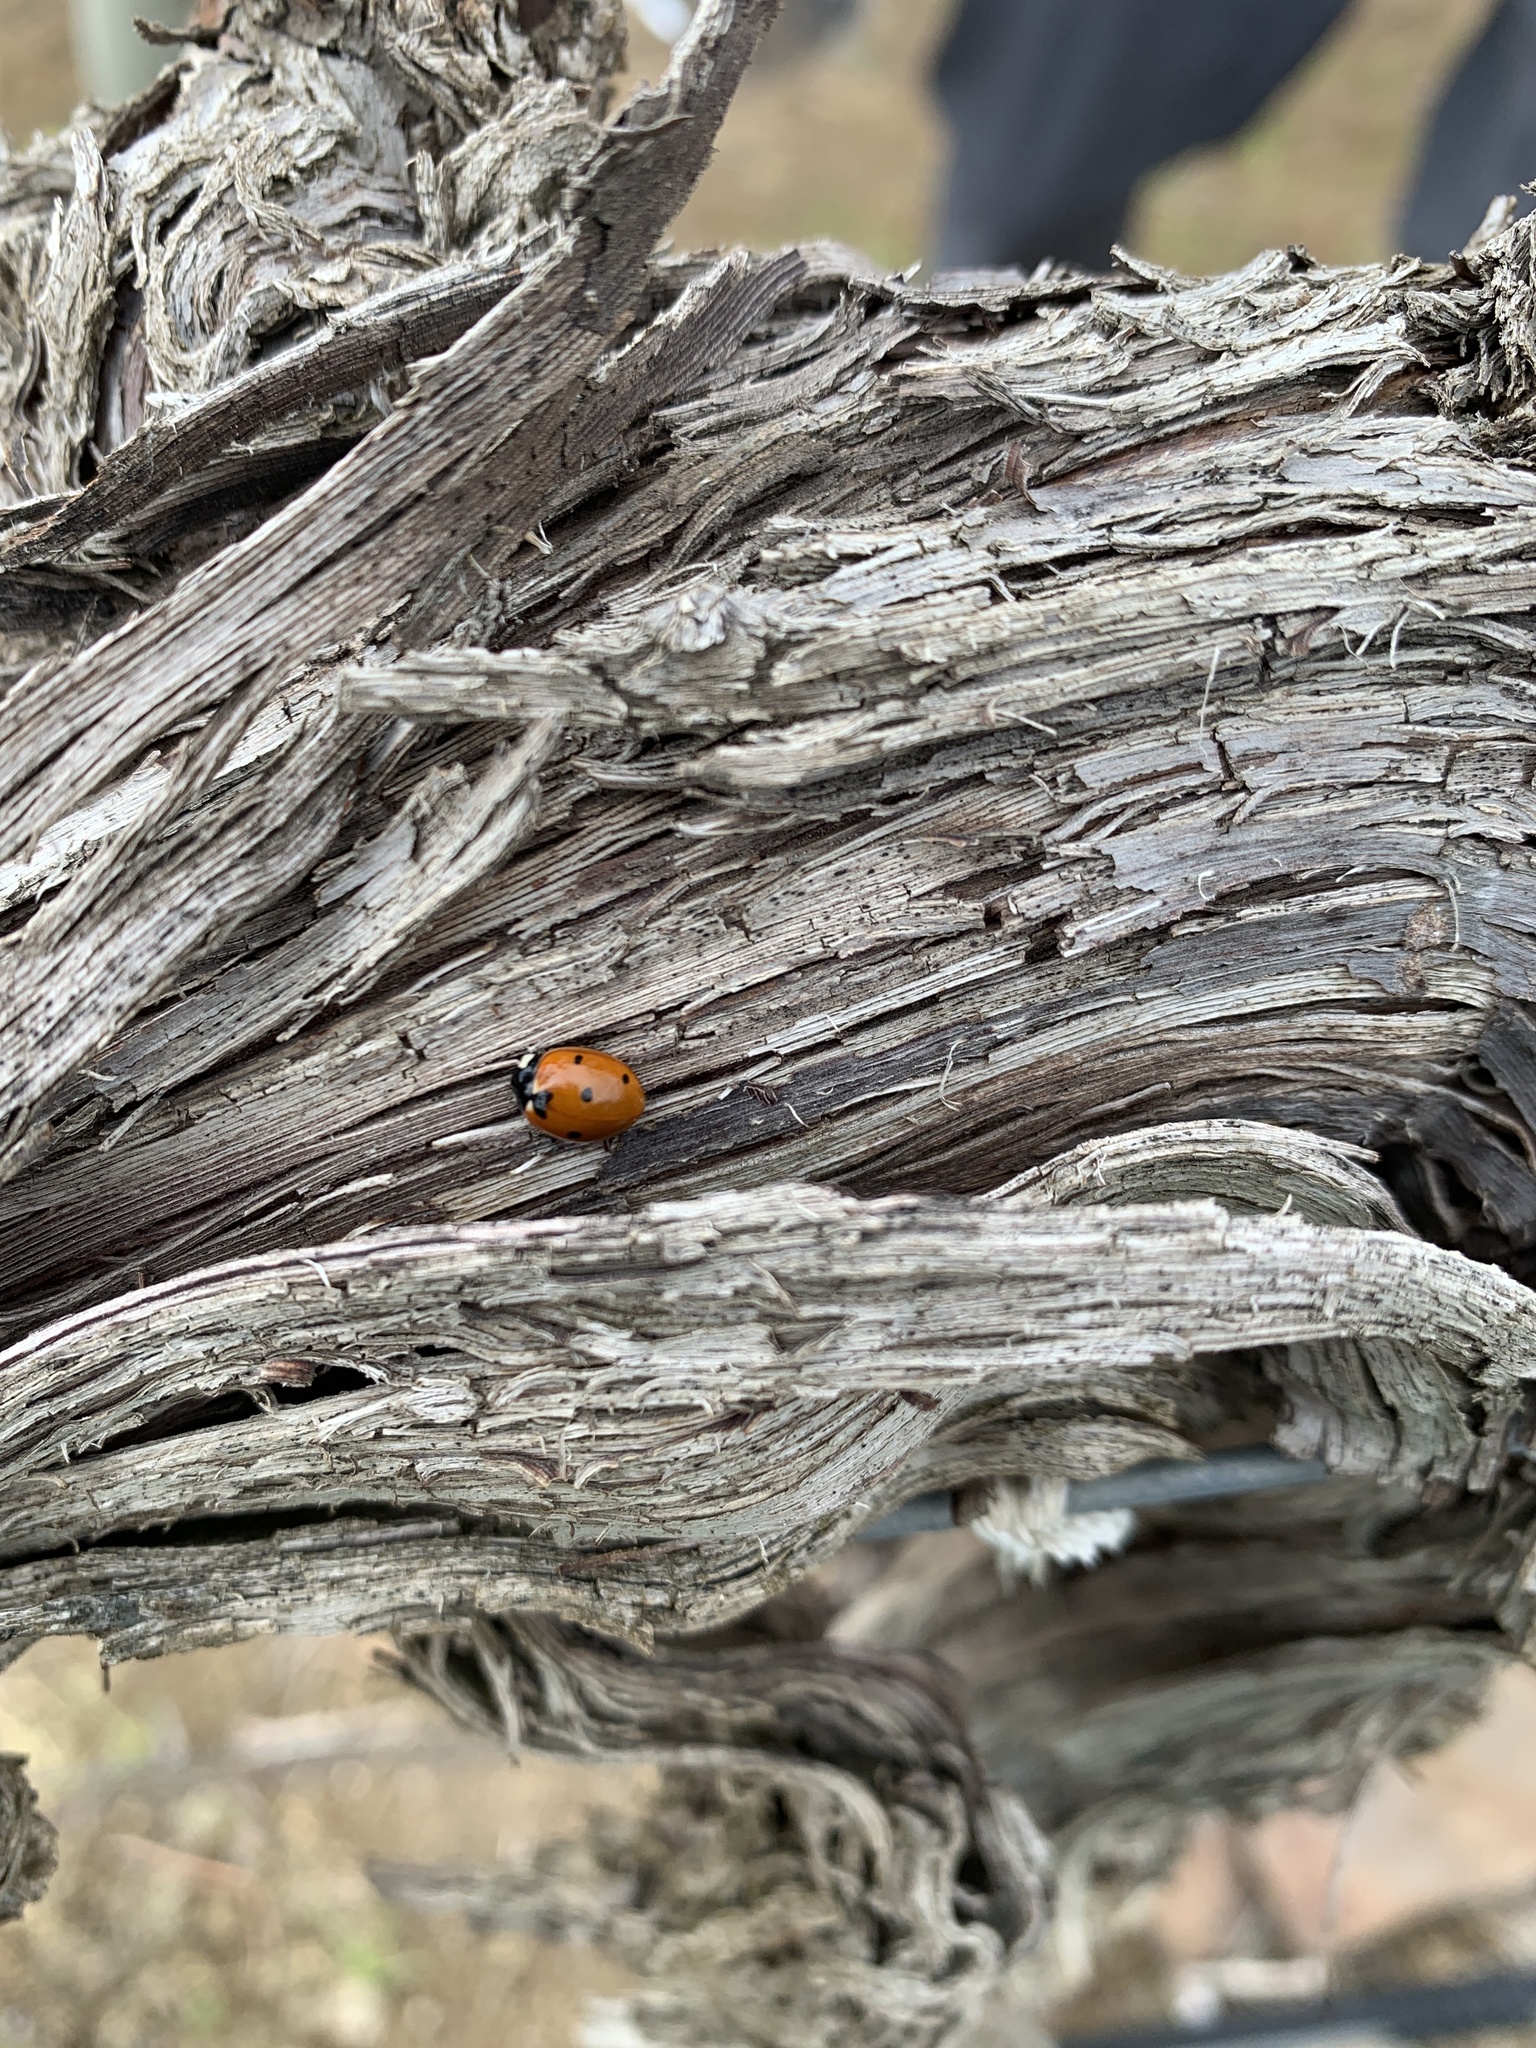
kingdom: Animalia
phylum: Arthropoda
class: Insecta
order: Coleoptera
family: Coccinellidae
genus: Coccinella
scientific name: Coccinella septempunctata
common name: Sevenspotted lady beetle
